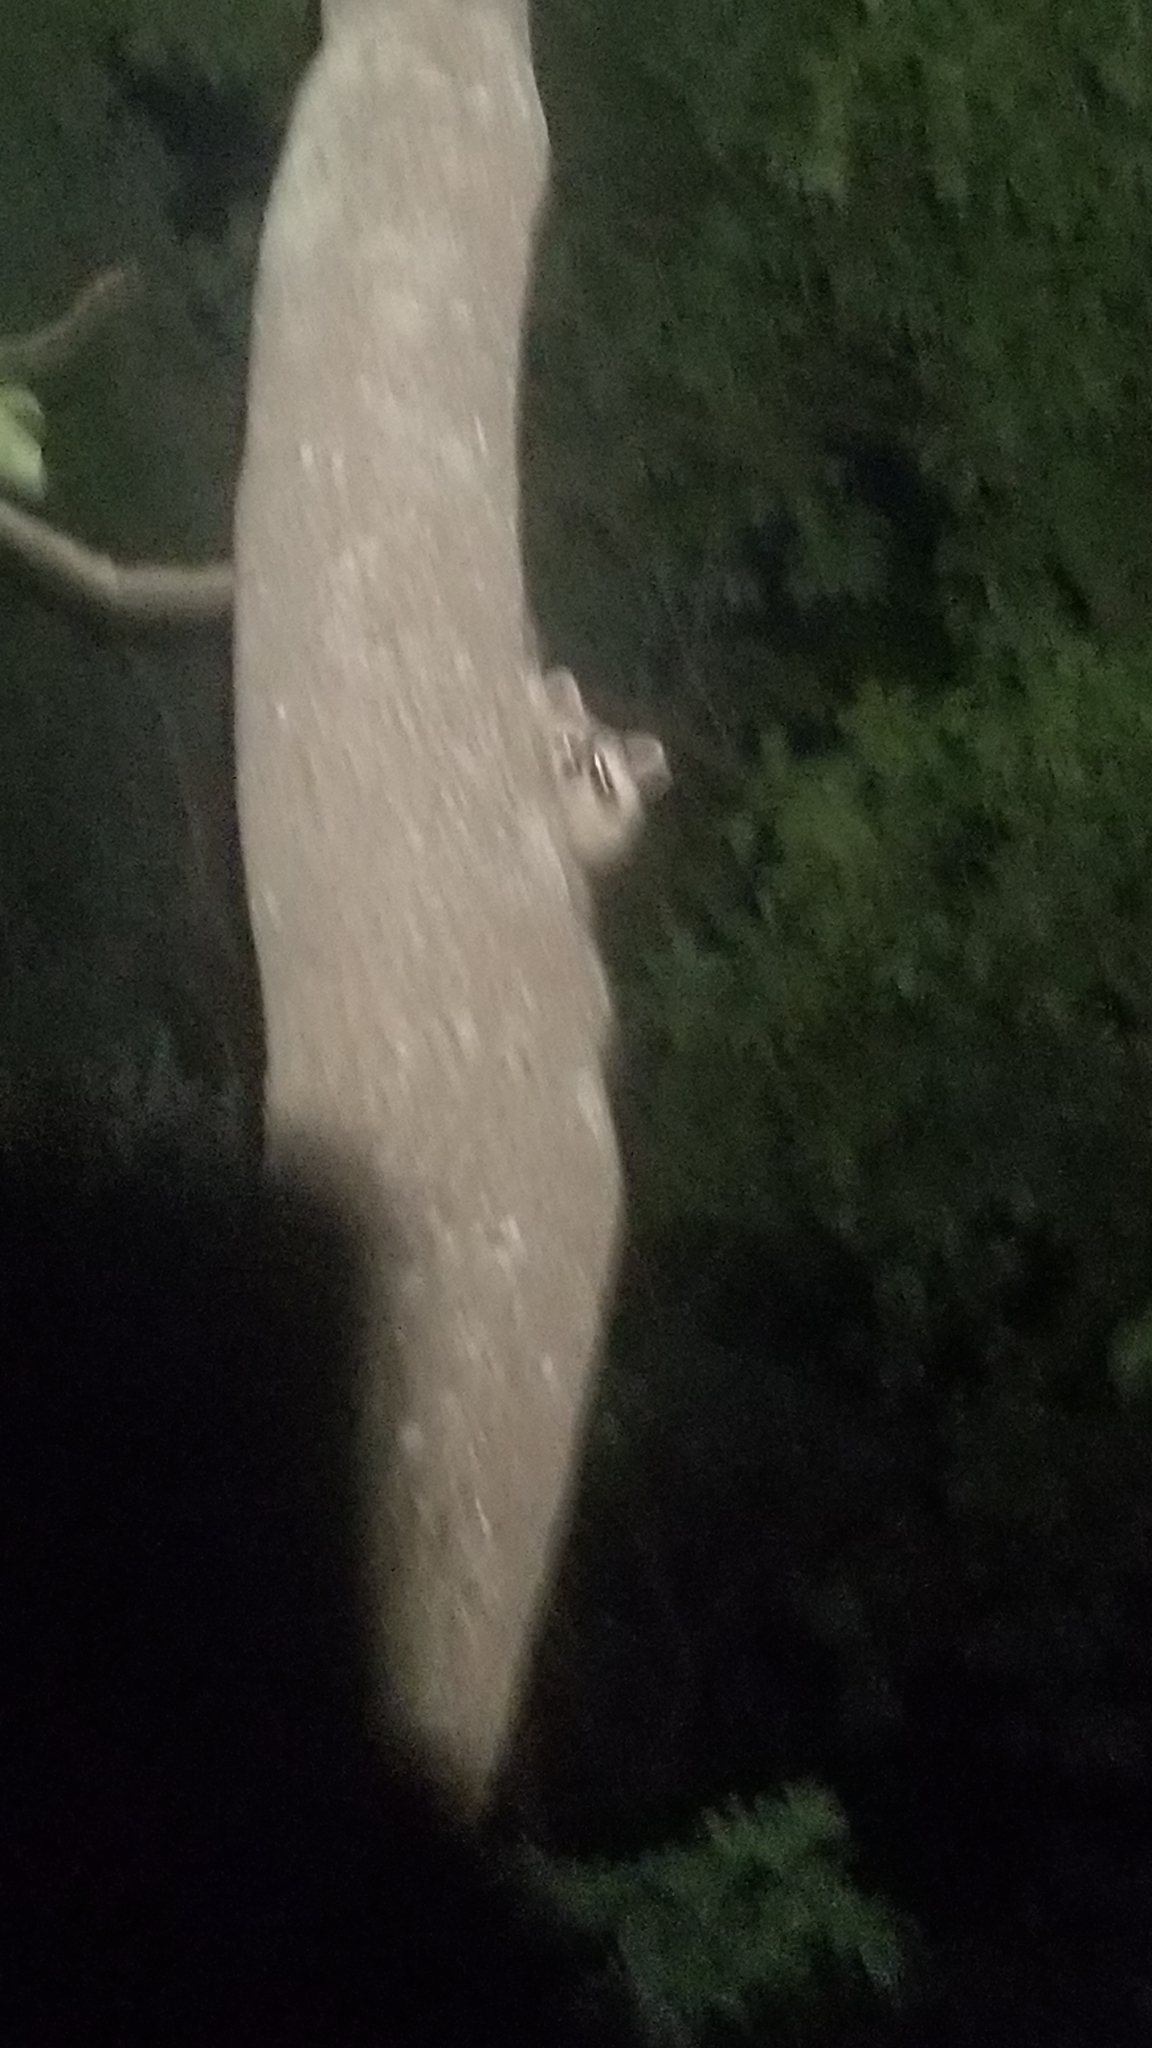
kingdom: Animalia
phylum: Chordata
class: Mammalia
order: Carnivora
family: Procyonidae
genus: Procyon
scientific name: Procyon lotor
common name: Raccoon
